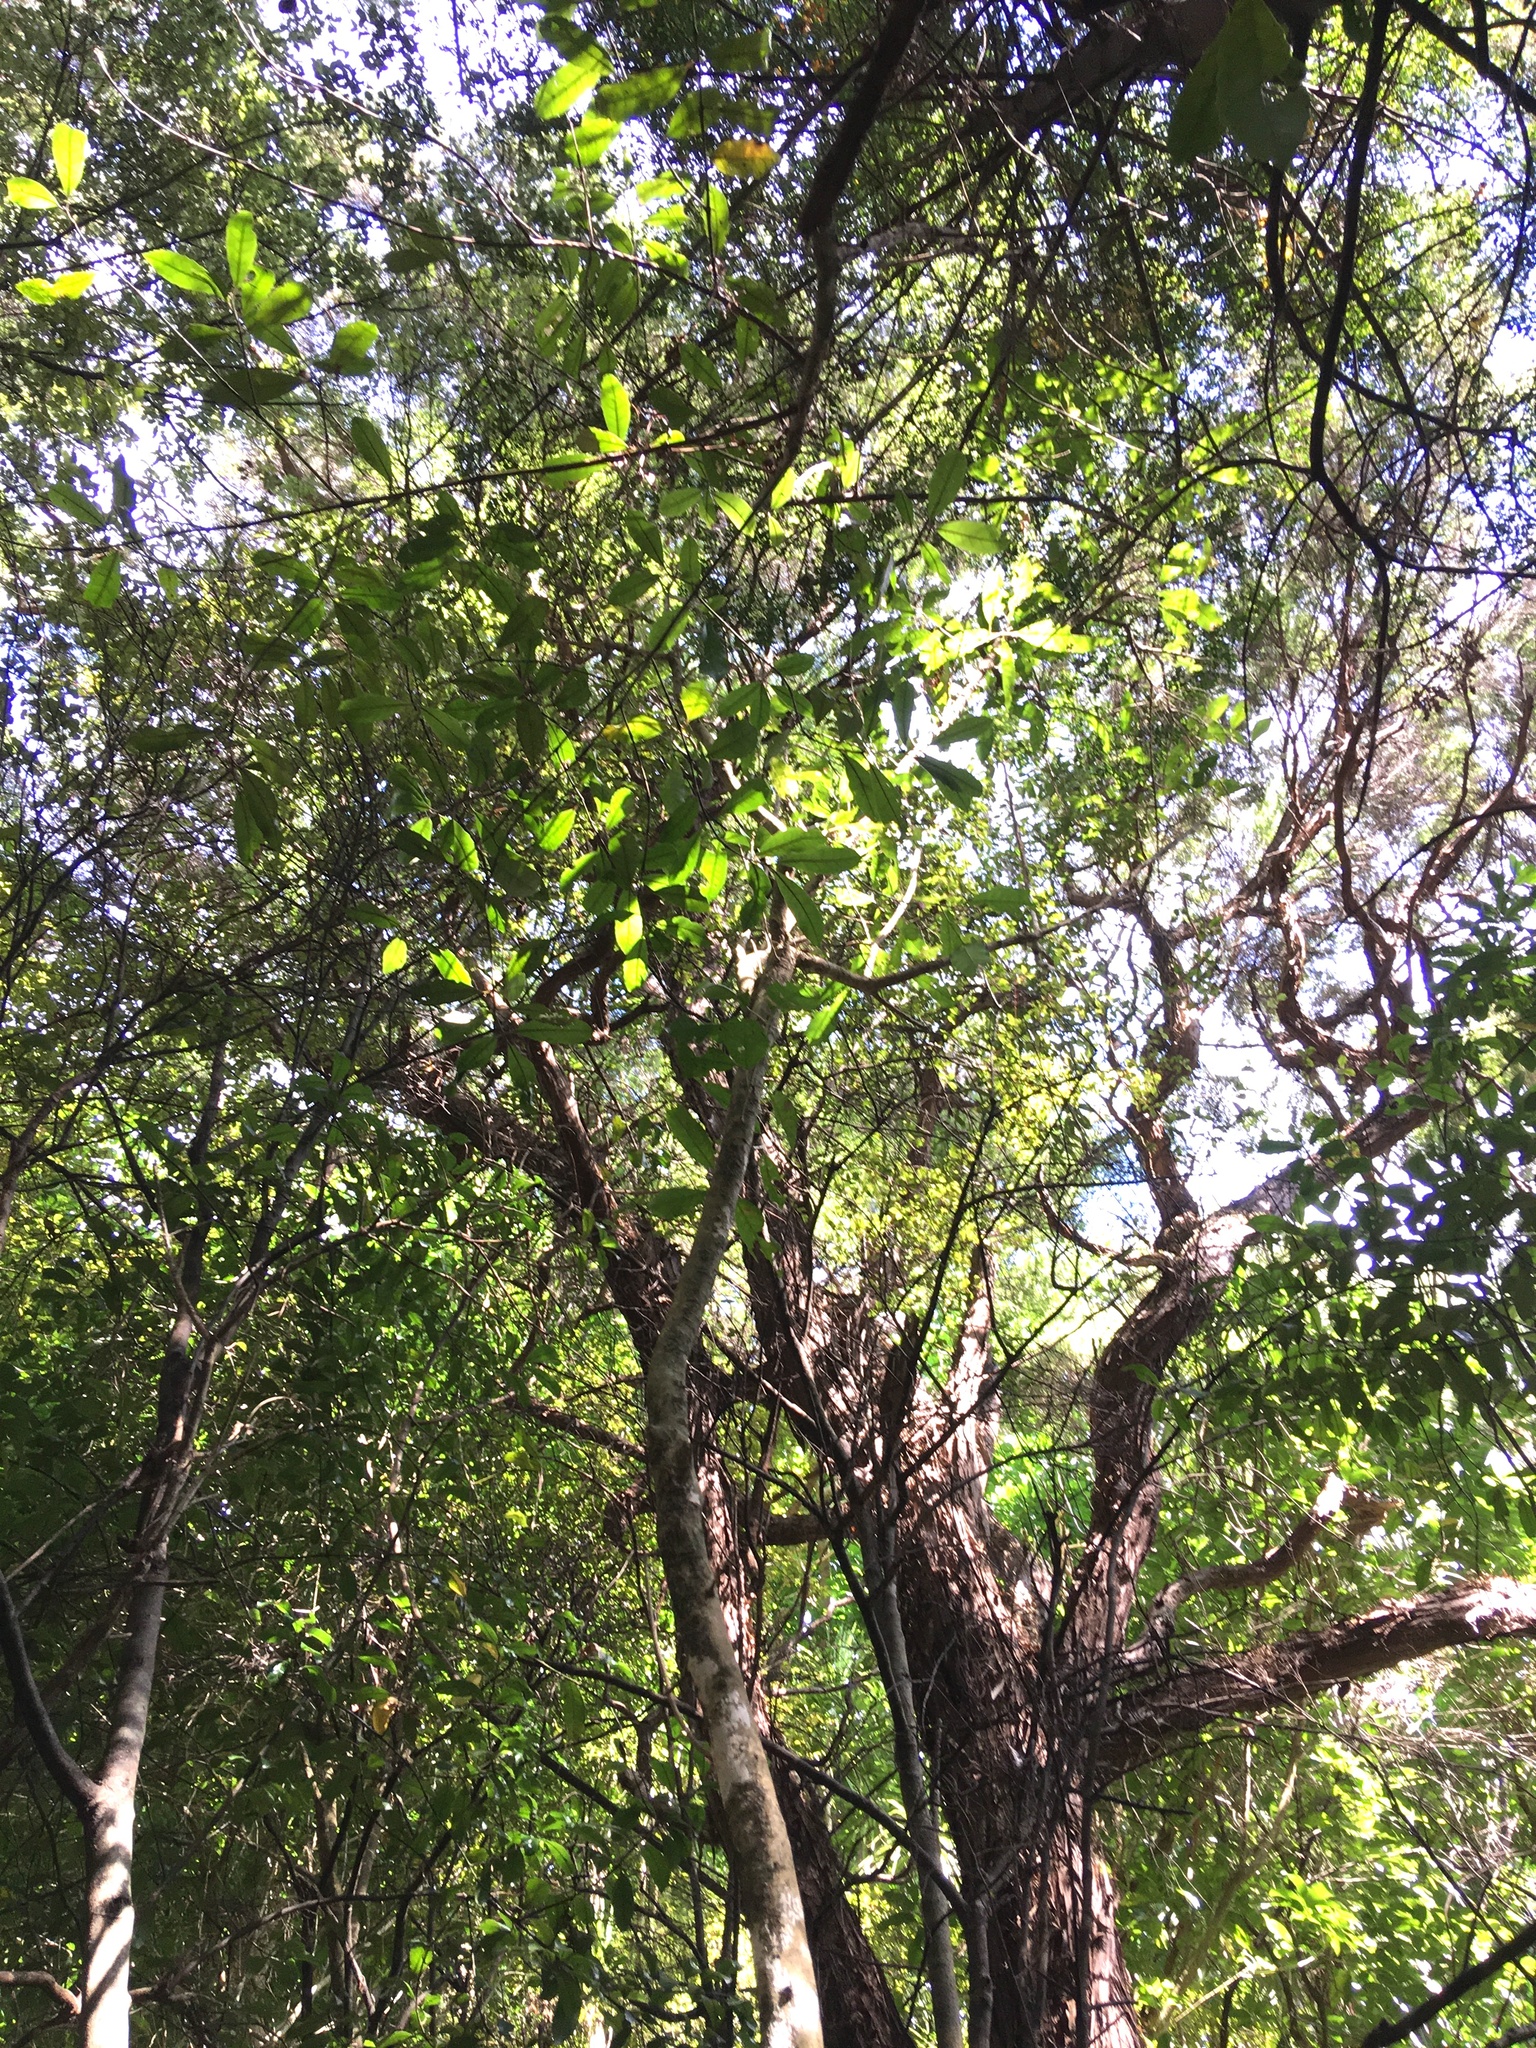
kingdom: Plantae
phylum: Tracheophyta
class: Pinopsida
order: Pinales
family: Phyllocladaceae
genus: Phyllocladus
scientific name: Phyllocladus trichomanoides
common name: Celery pine
